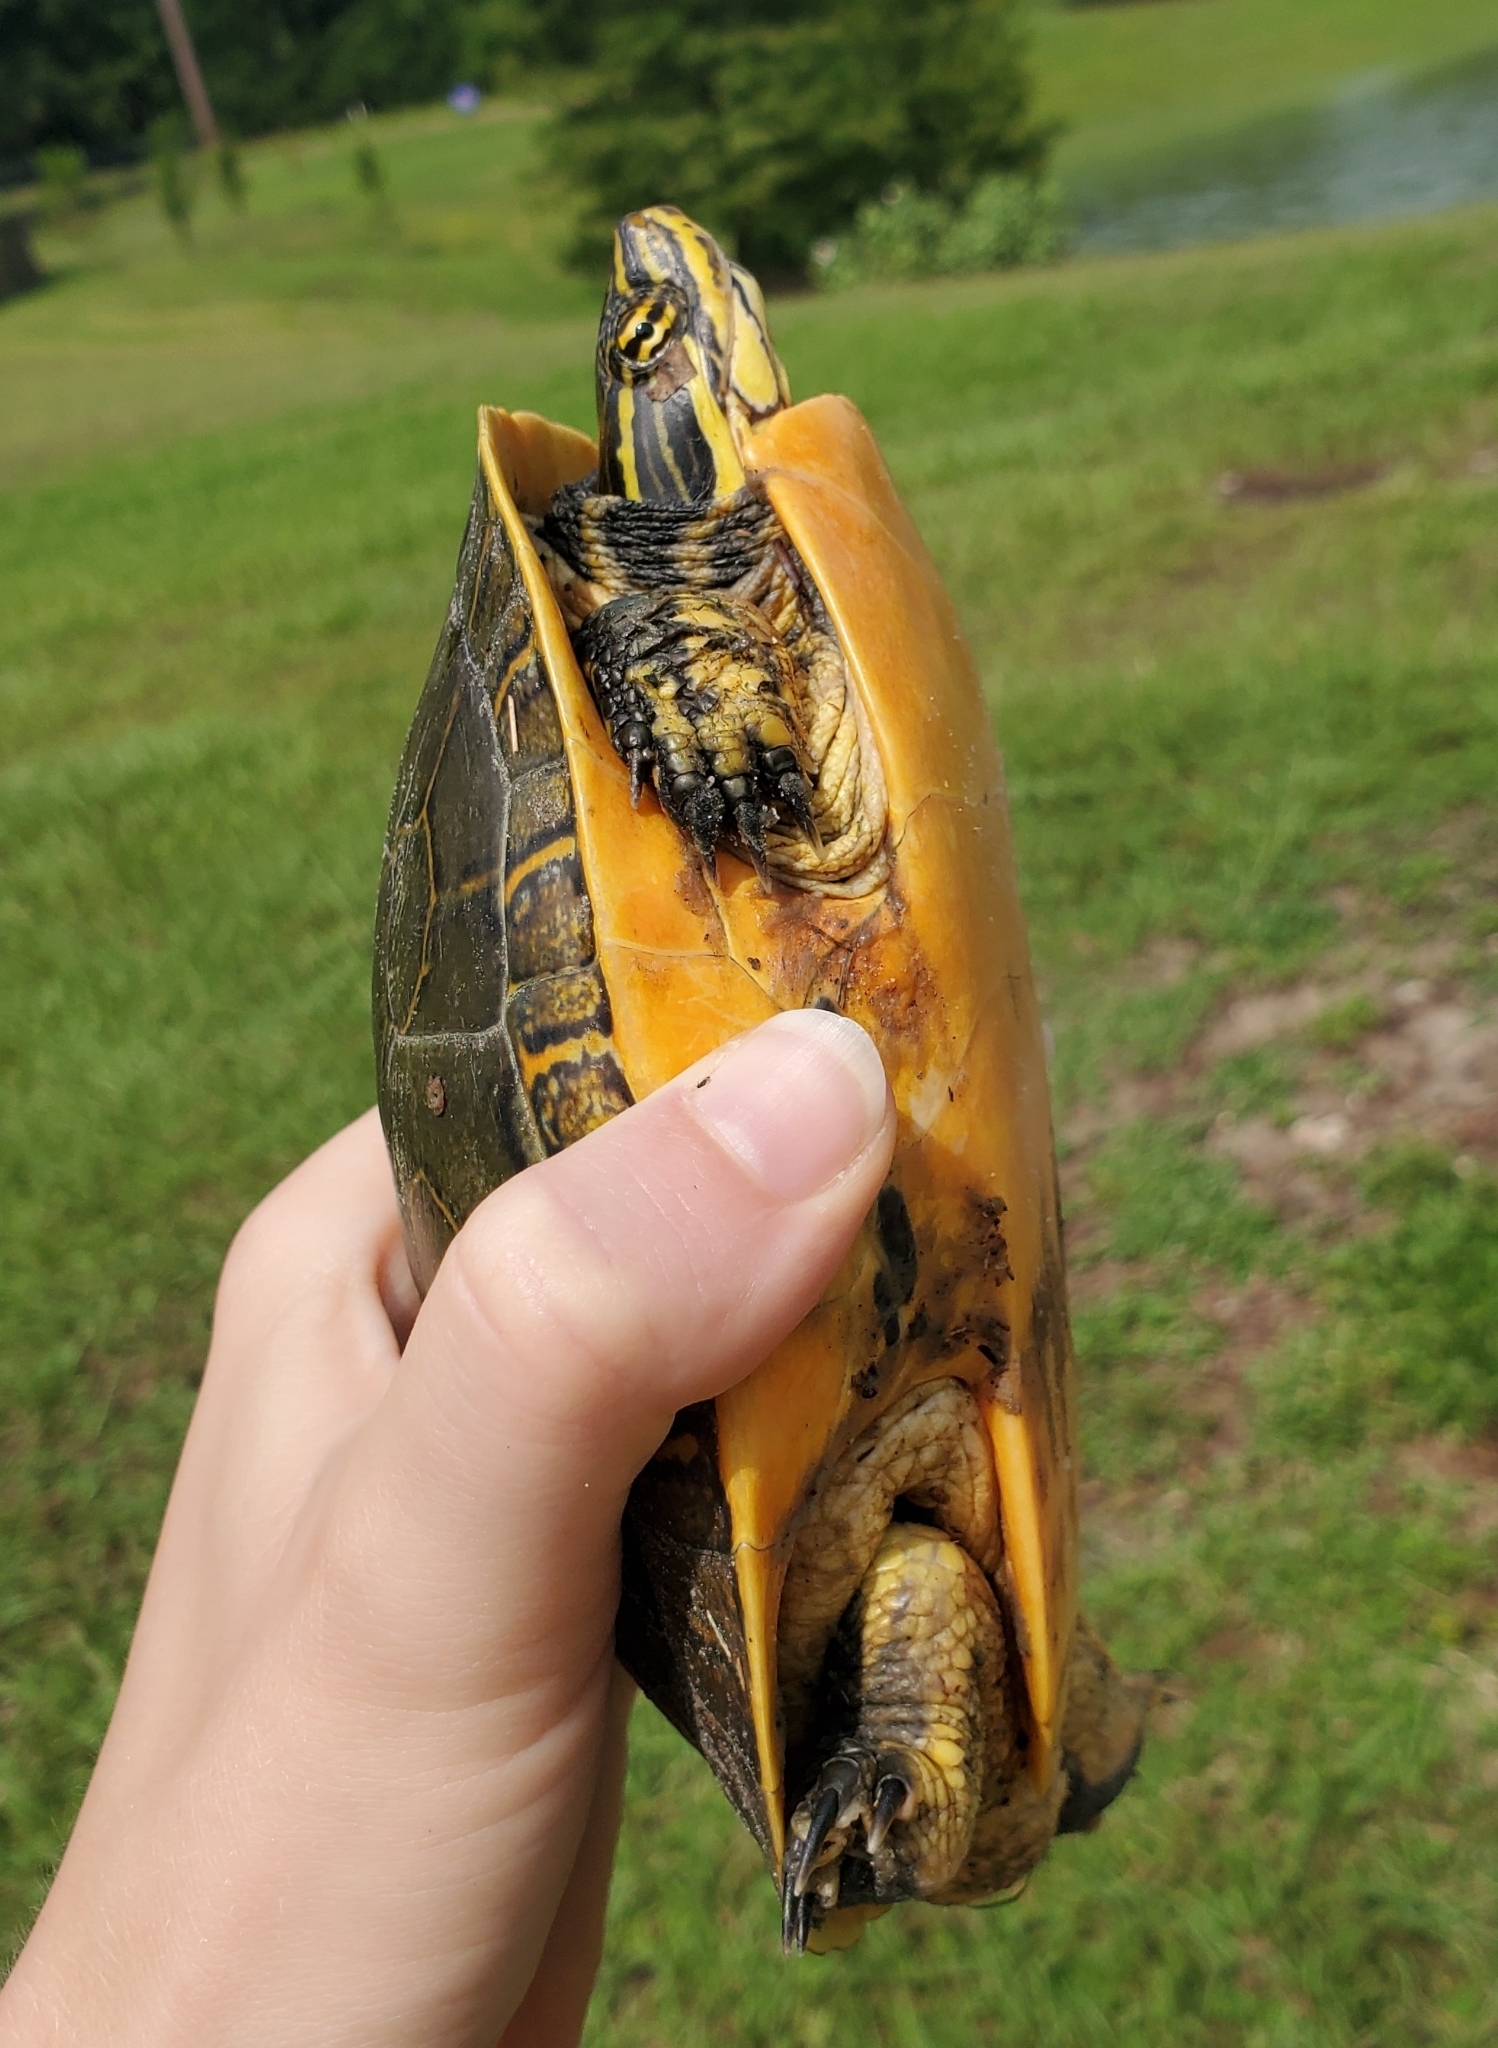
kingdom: Animalia
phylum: Chordata
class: Testudines
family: Emydidae
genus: Deirochelys
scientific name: Deirochelys reticularia
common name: Chicken turtle
